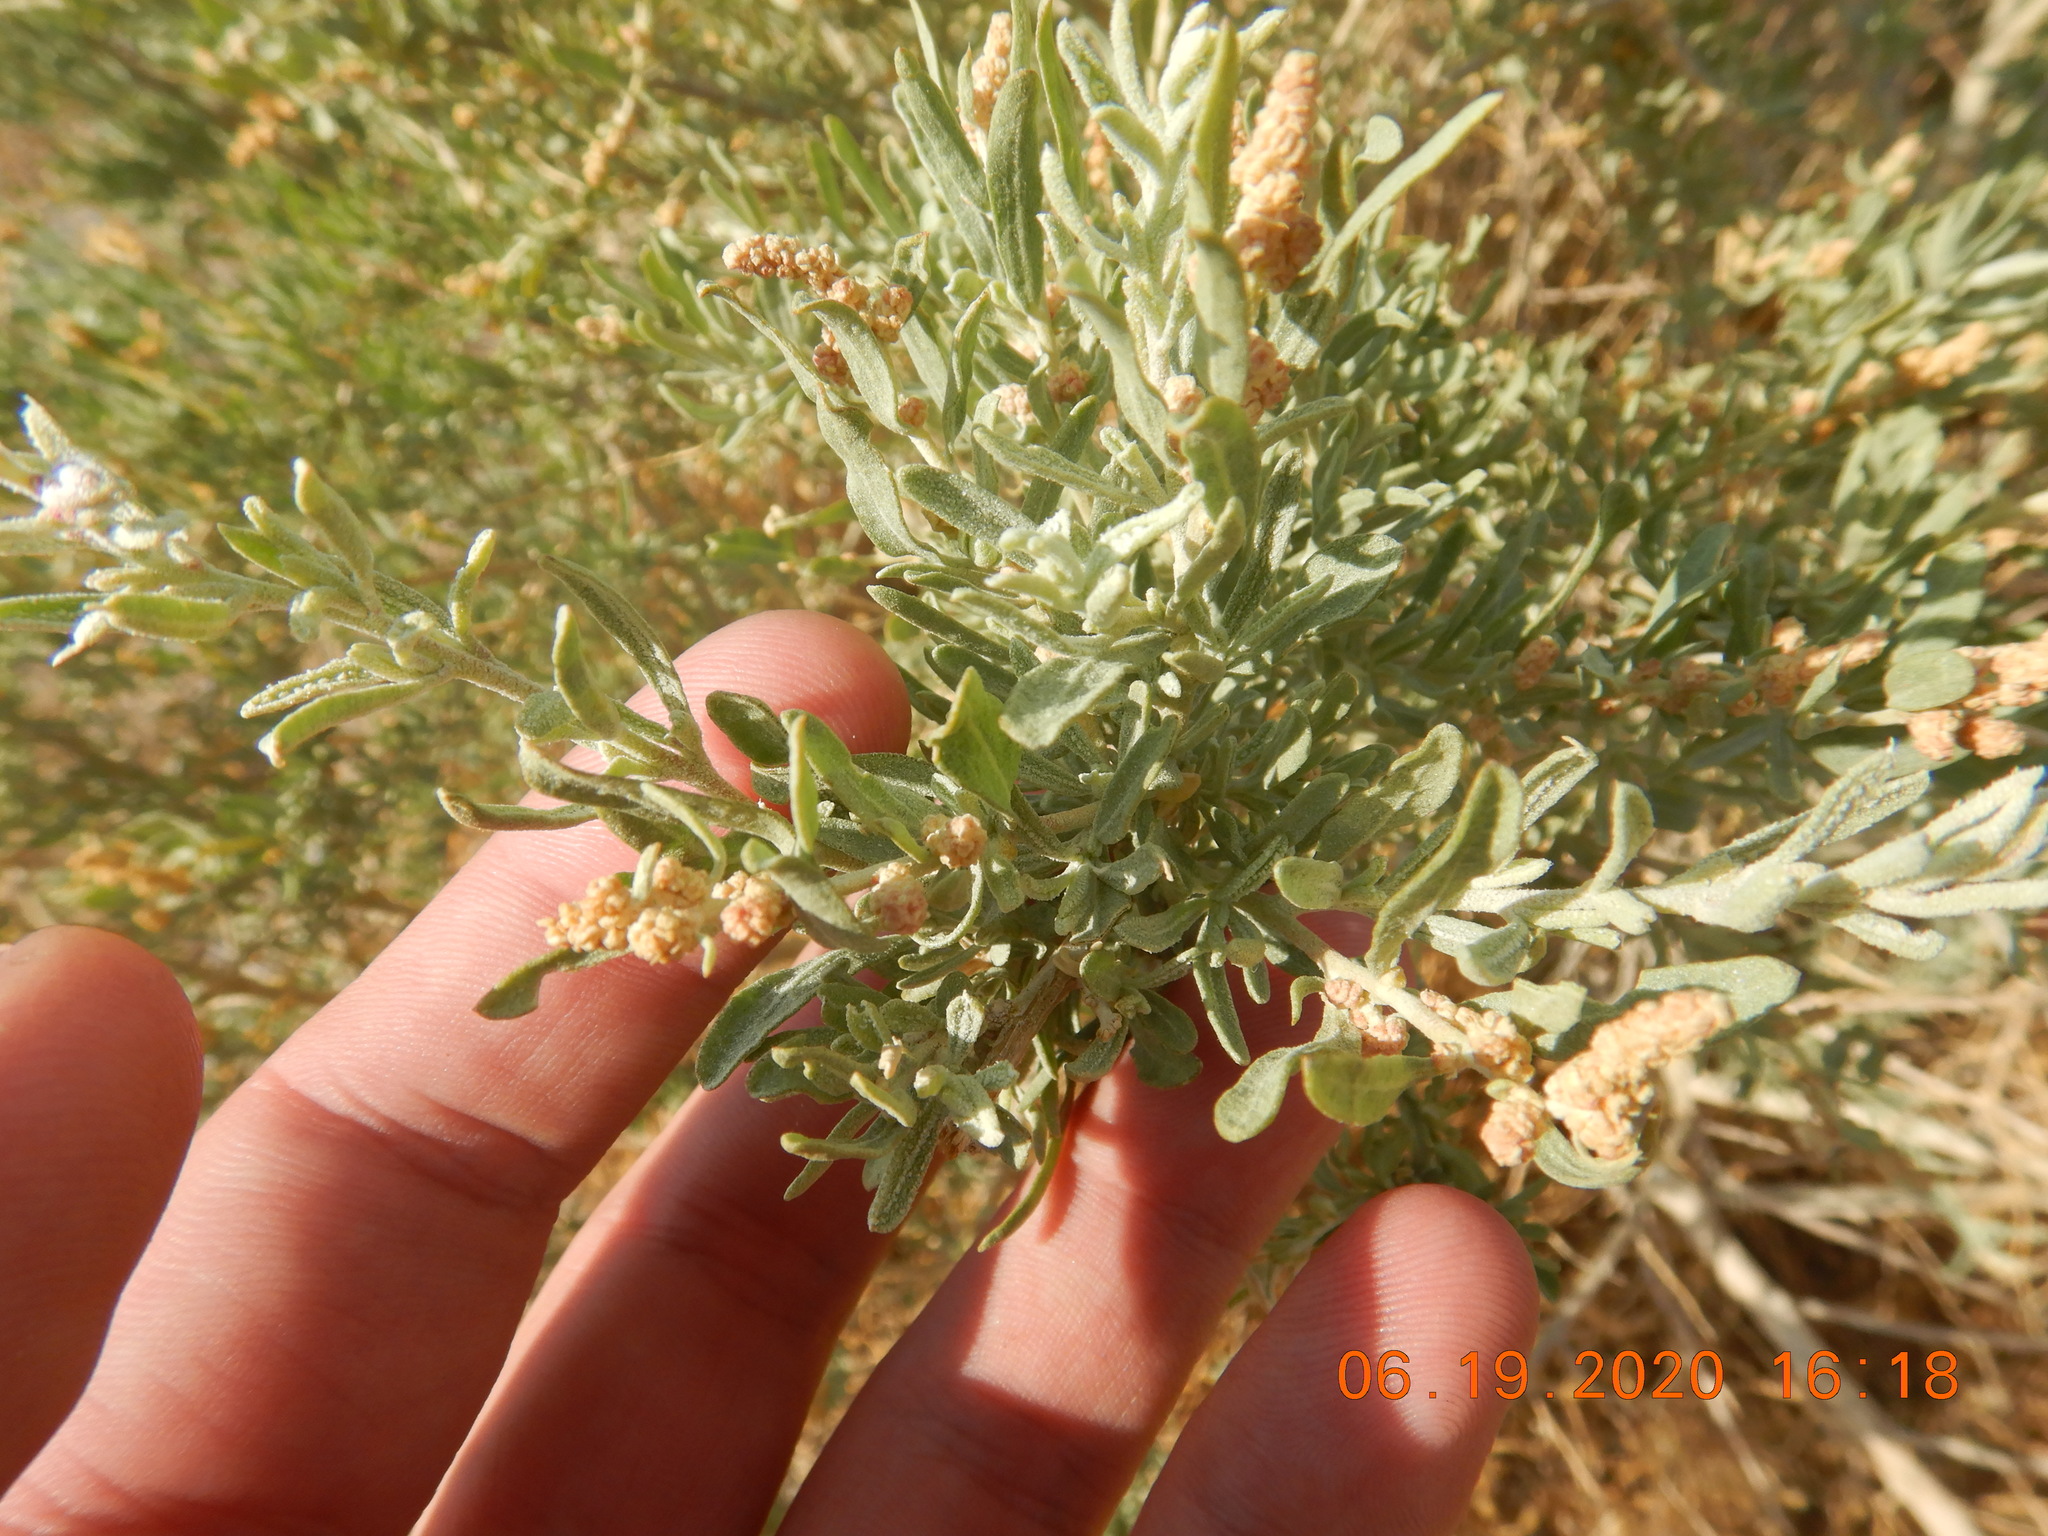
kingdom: Plantae
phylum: Tracheophyta
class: Magnoliopsida
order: Caryophyllales
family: Amaranthaceae
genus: Atriplex
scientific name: Atriplex canescens
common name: Four-wing saltbush
